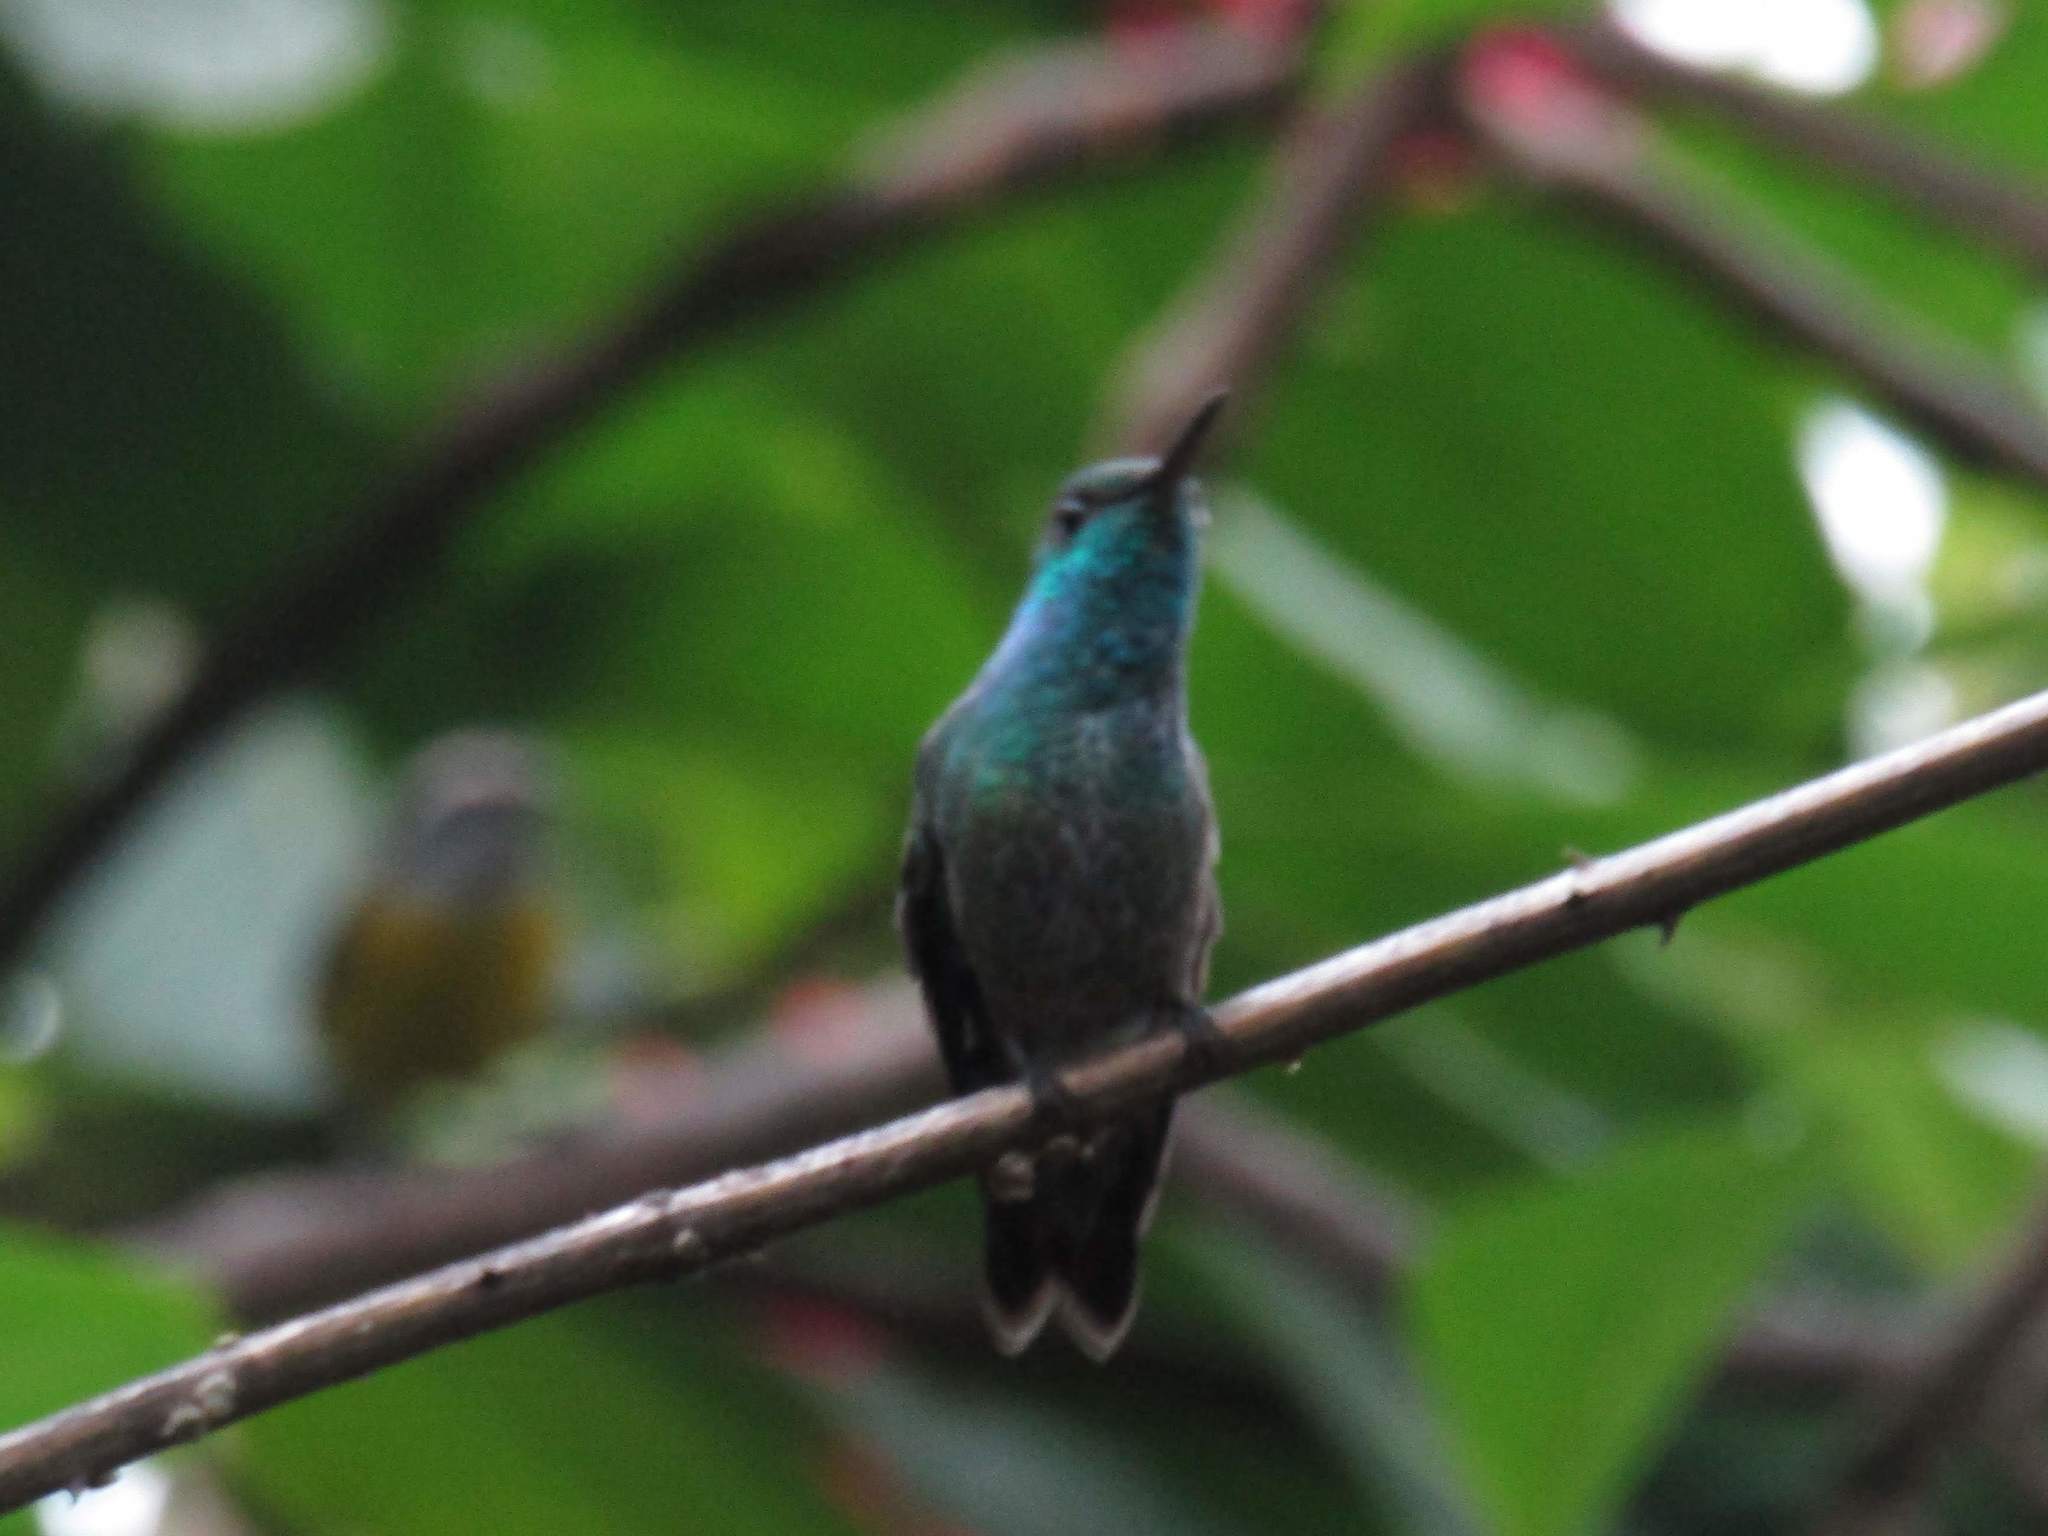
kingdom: Animalia
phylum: Chordata
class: Aves
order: Apodiformes
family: Trochilidae
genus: Chrysuronia
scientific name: Chrysuronia versicolor
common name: Versicolored emerald
